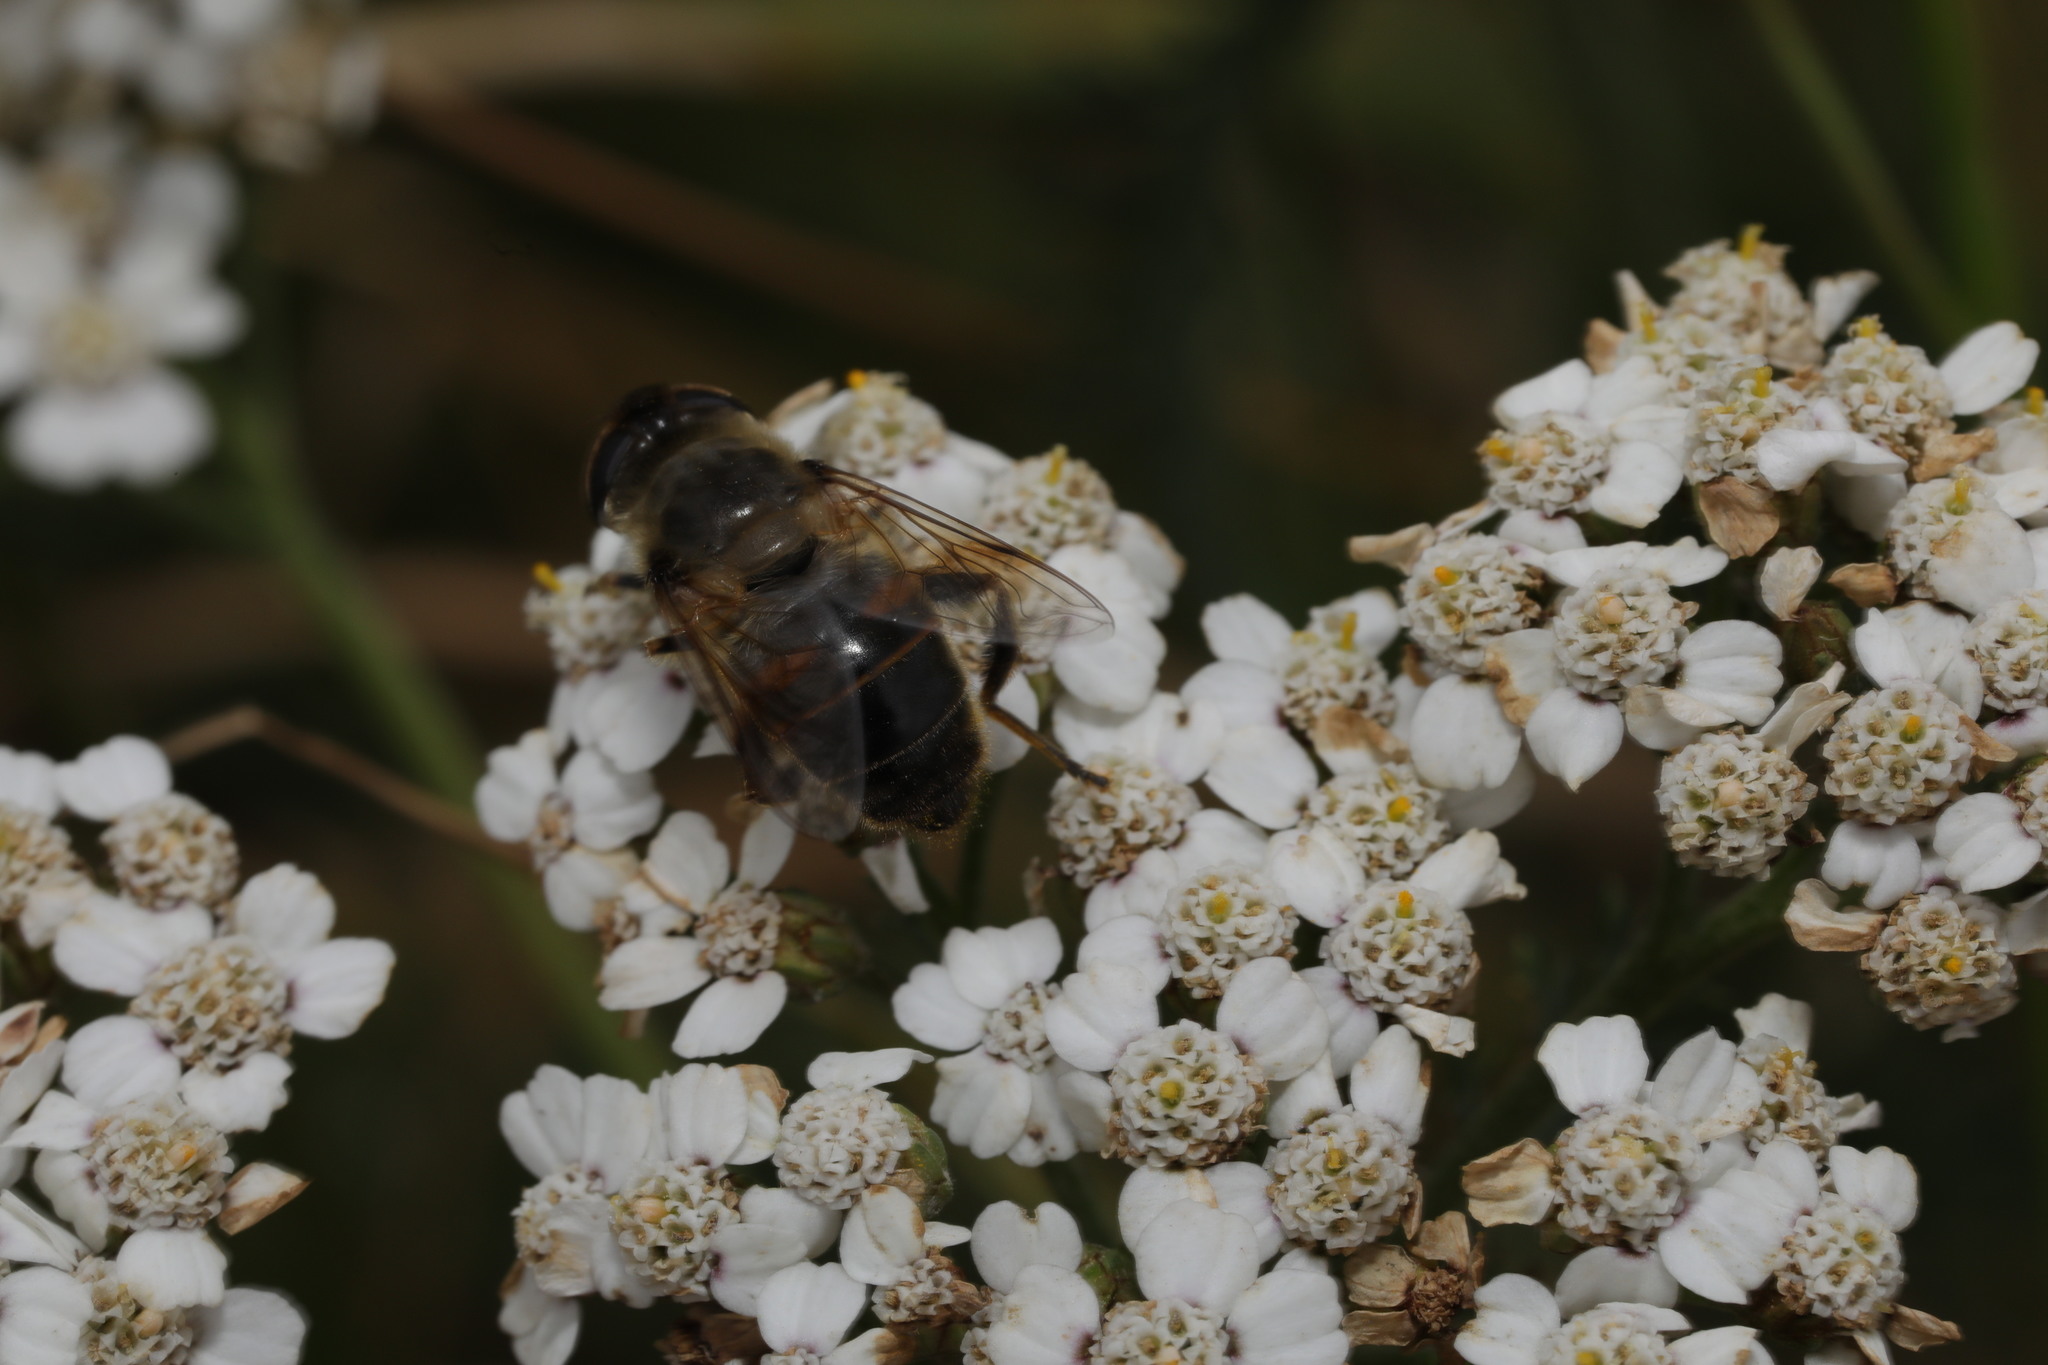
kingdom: Animalia
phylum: Arthropoda
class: Insecta
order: Diptera
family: Syrphidae
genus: Eristalis
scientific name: Eristalis tenax
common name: Drone fly
